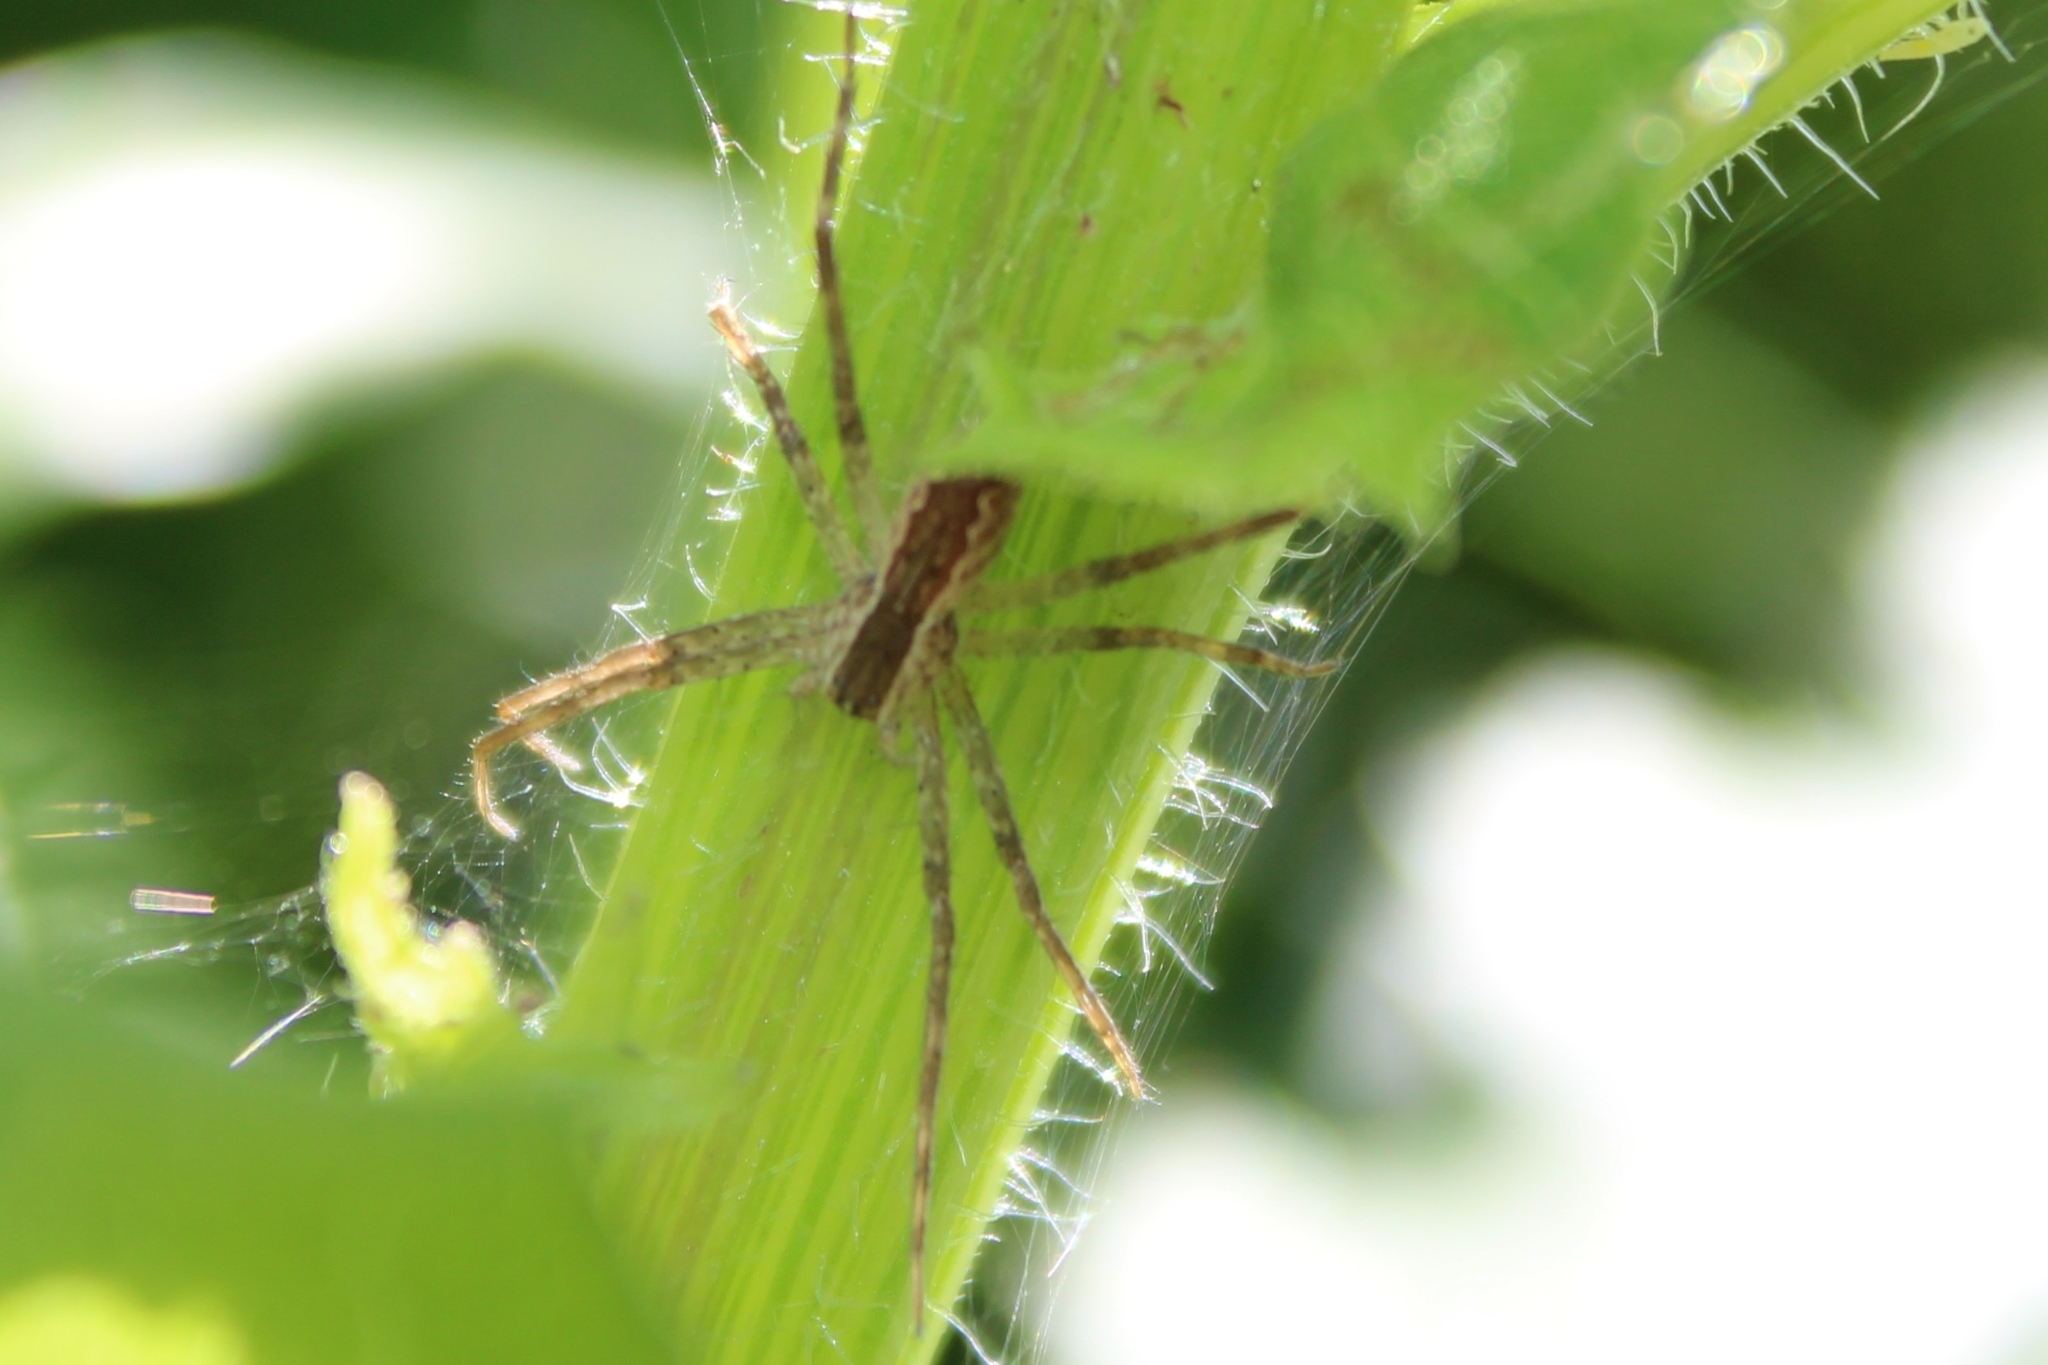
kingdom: Animalia
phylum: Arthropoda
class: Arachnida
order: Araneae
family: Pisauridae
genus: Pisaurina
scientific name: Pisaurina mira
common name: American nursery web spider
